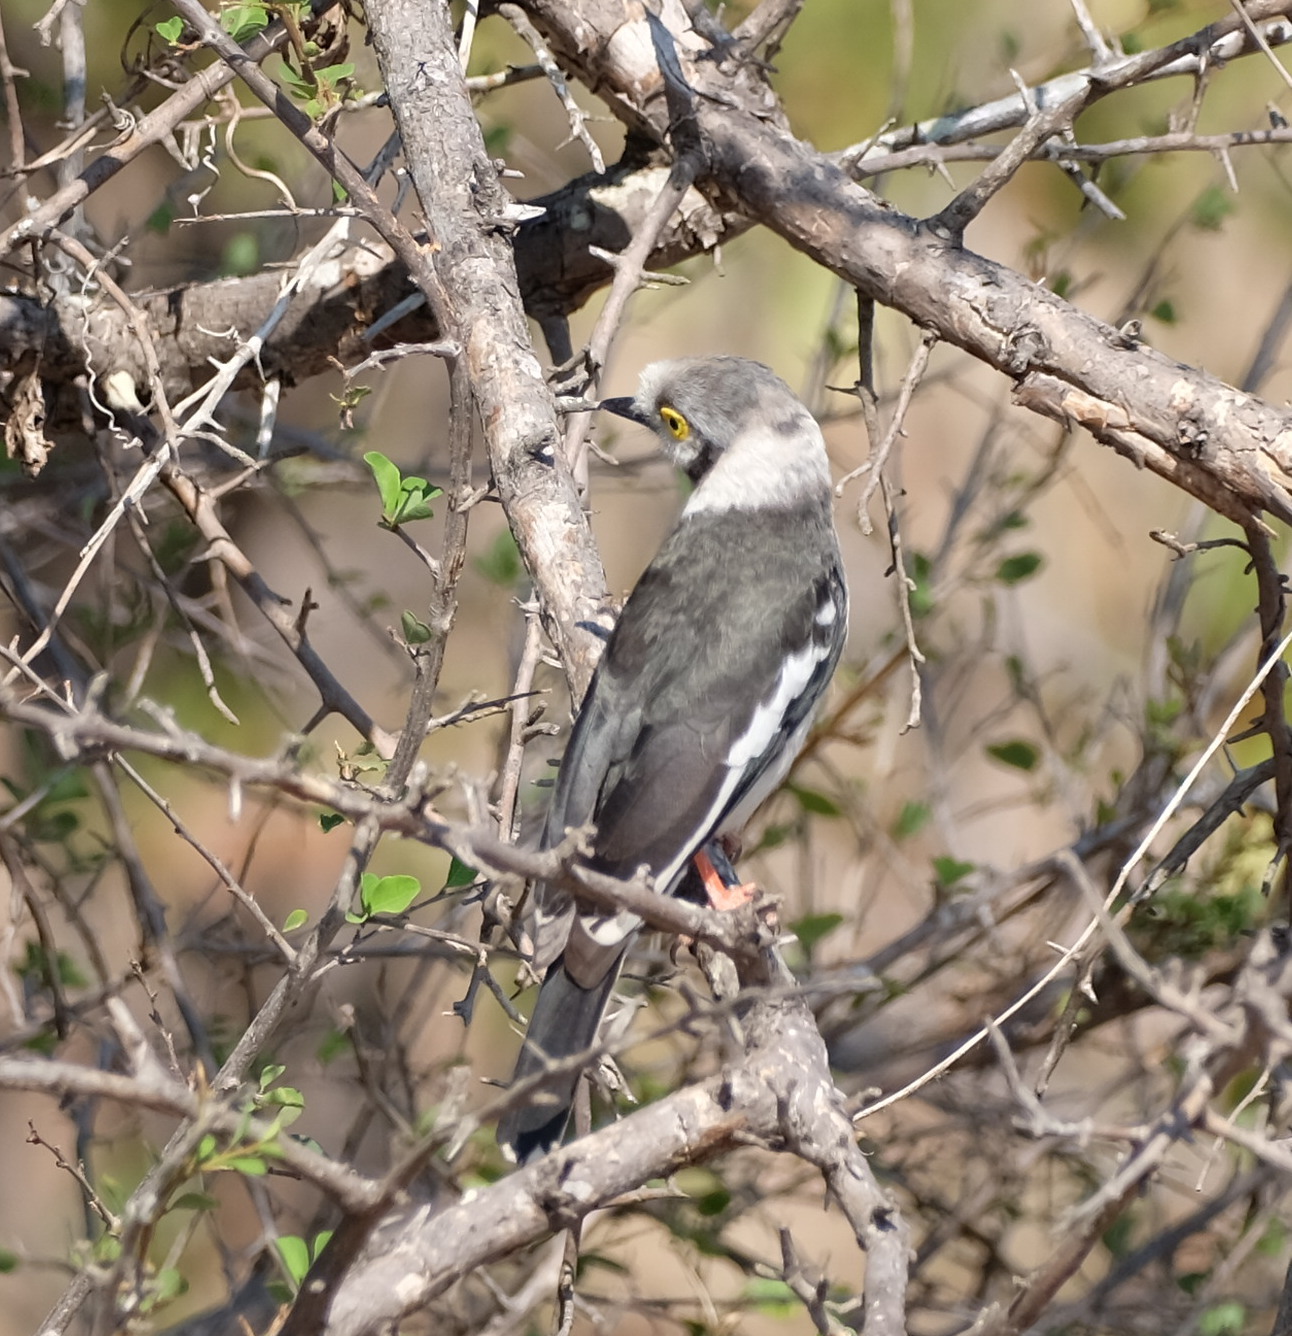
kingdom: Animalia
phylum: Chordata
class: Aves
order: Passeriformes
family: Prionopidae
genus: Prionops
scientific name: Prionops plumatus
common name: White-crested helmetshrike
